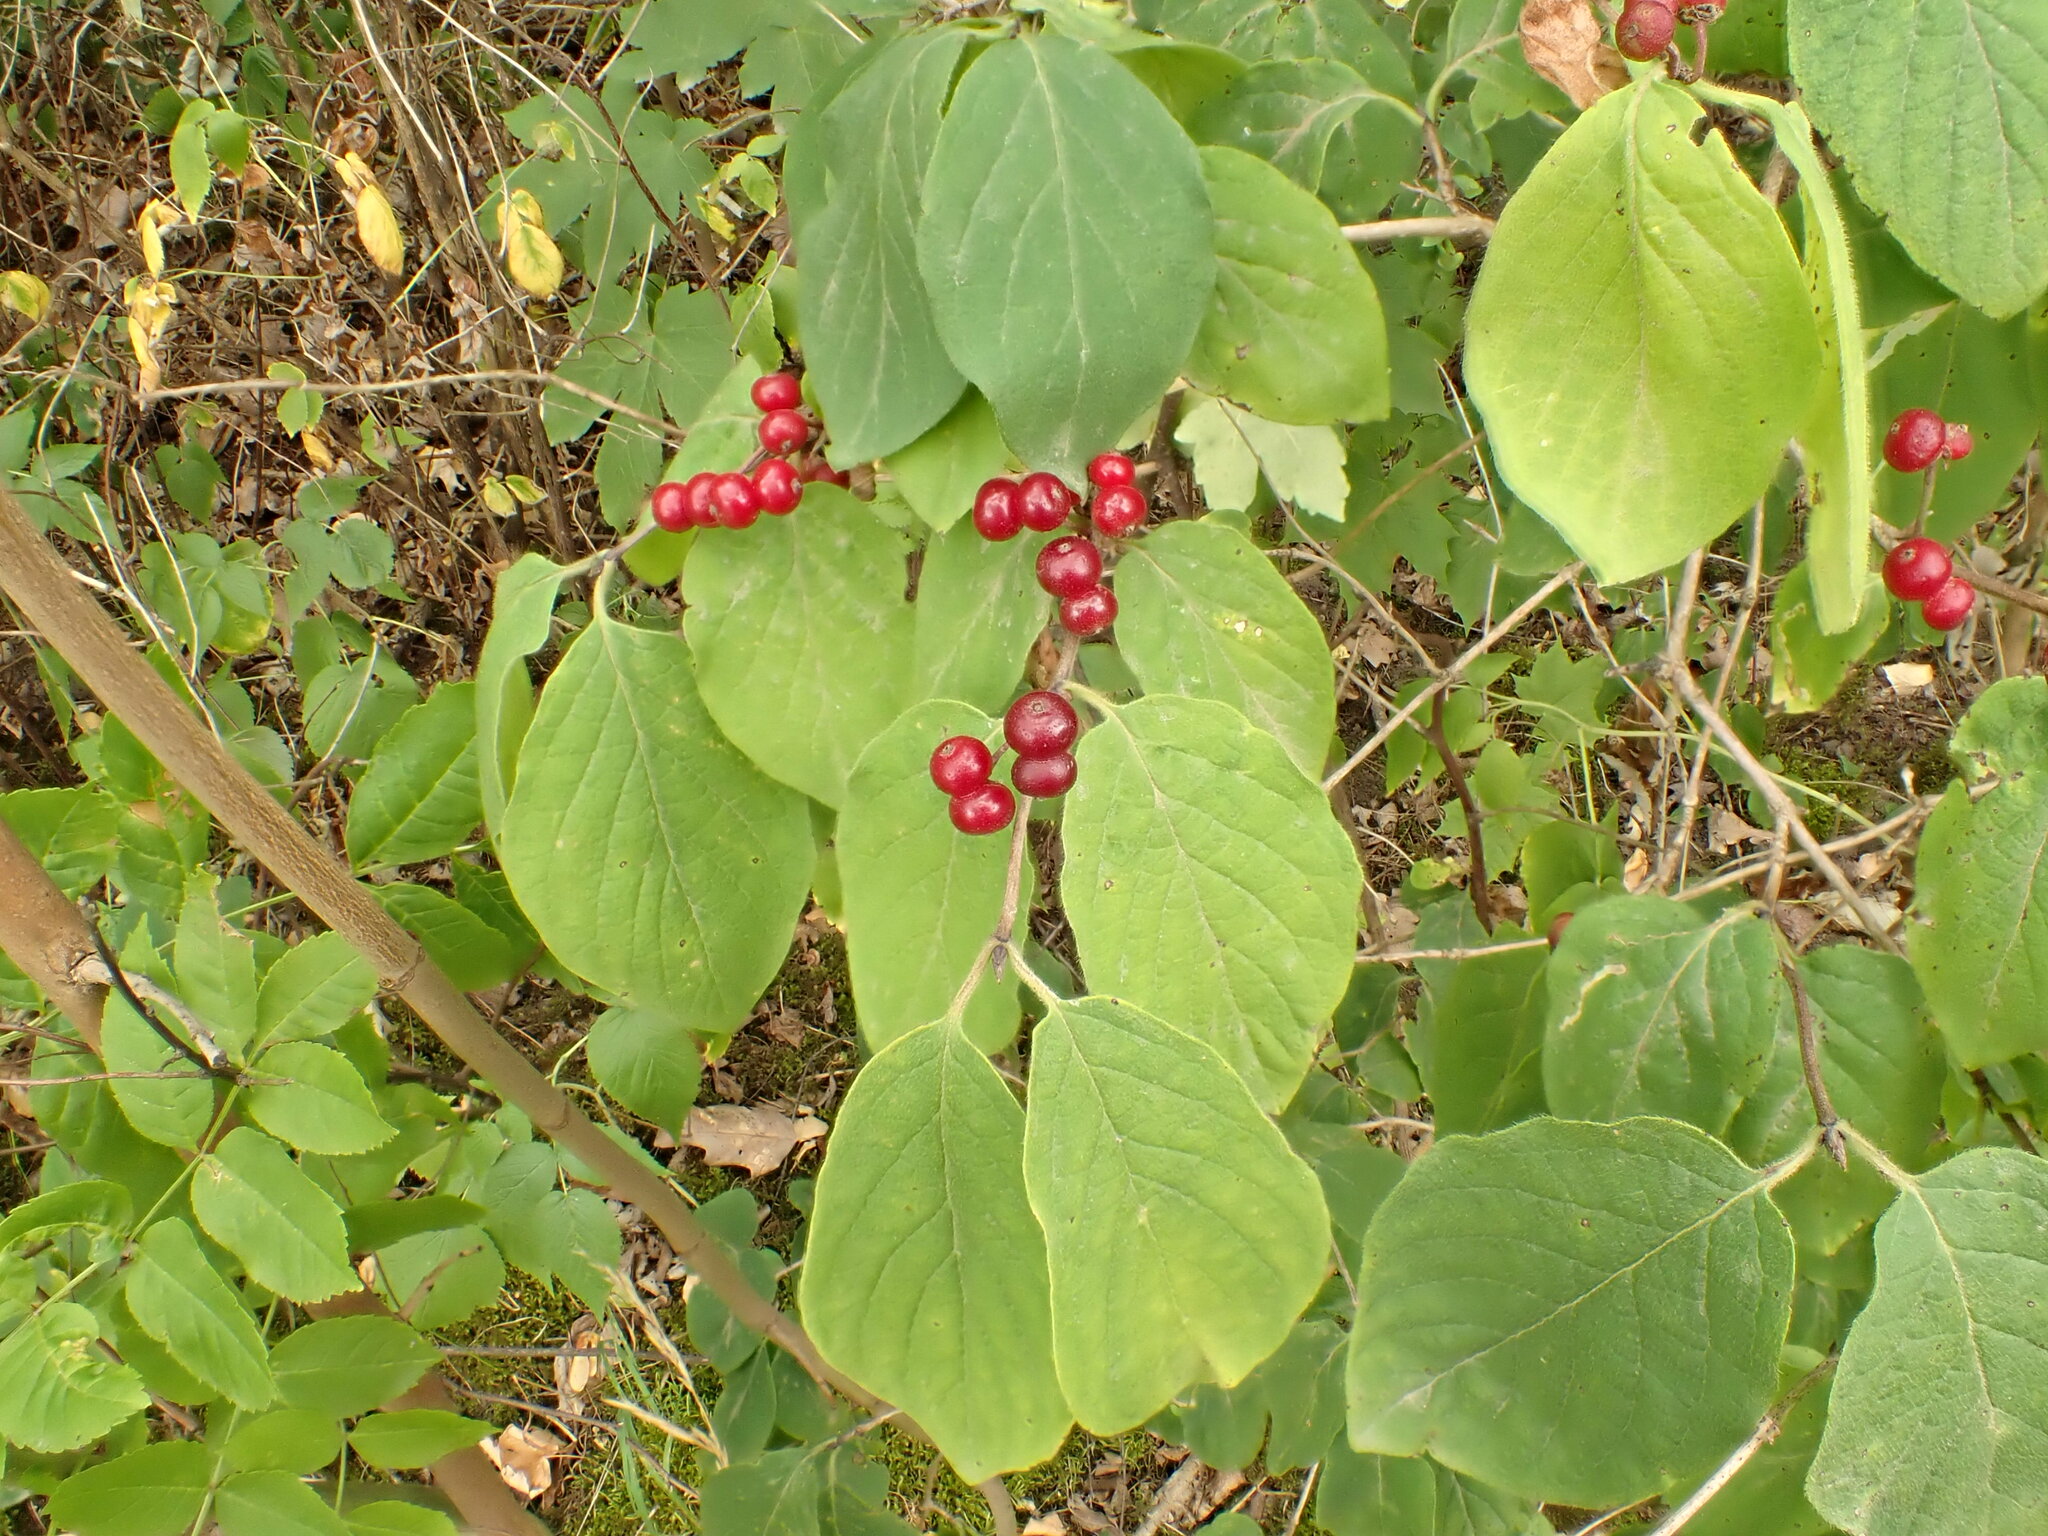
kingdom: Plantae
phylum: Tracheophyta
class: Magnoliopsida
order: Dipsacales
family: Caprifoliaceae
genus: Lonicera
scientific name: Lonicera xylosteum
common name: Fly honeysuckle
